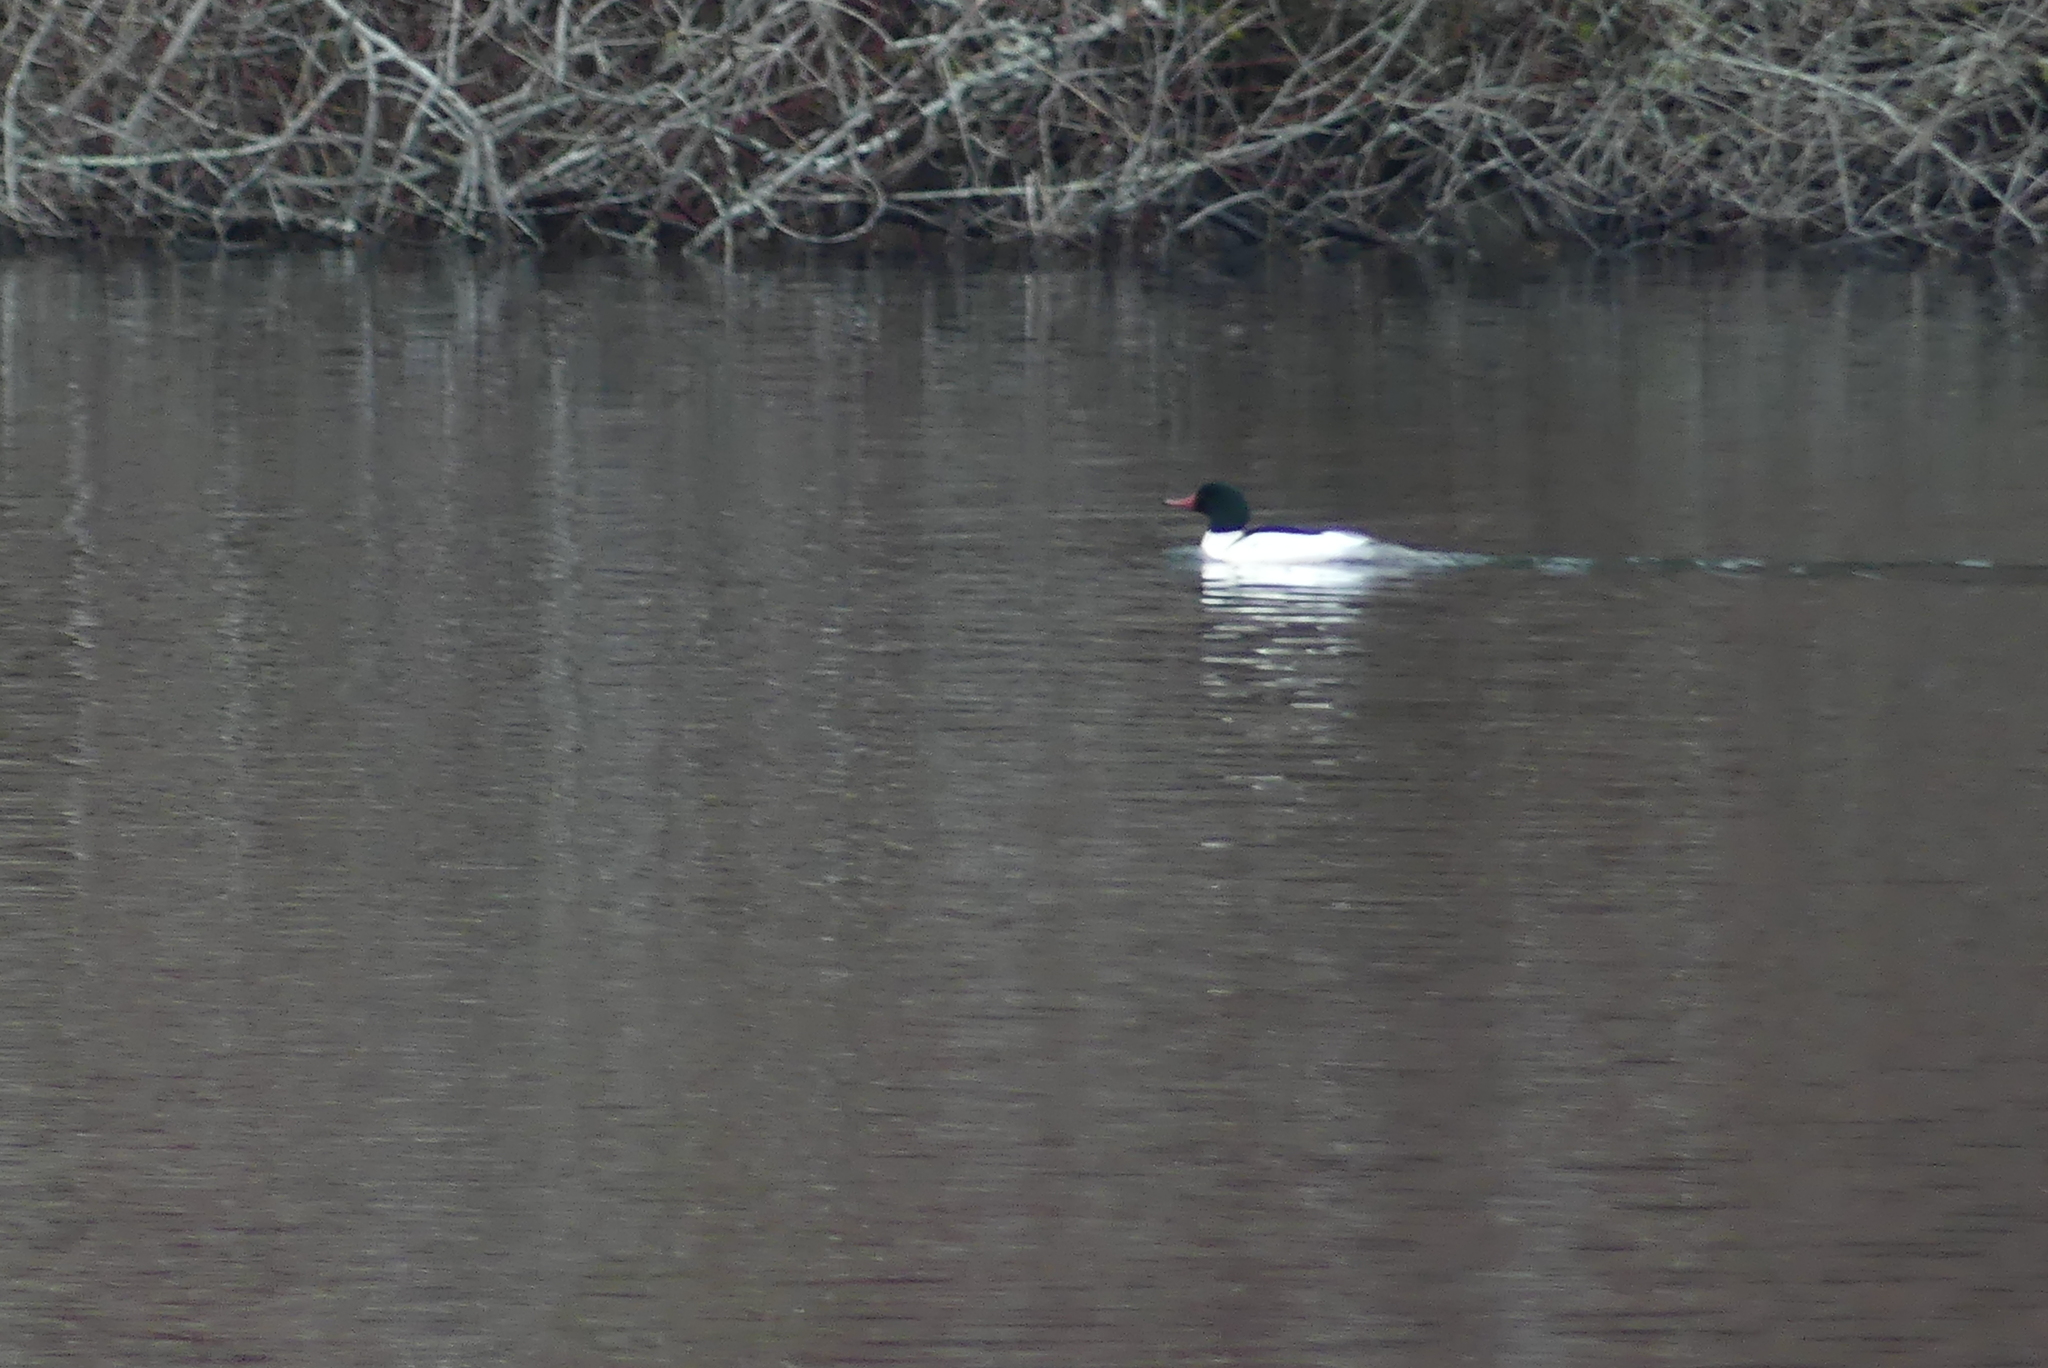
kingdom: Animalia
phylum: Chordata
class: Aves
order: Anseriformes
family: Anatidae
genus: Mergus
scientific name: Mergus merganser
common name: Common merganser
